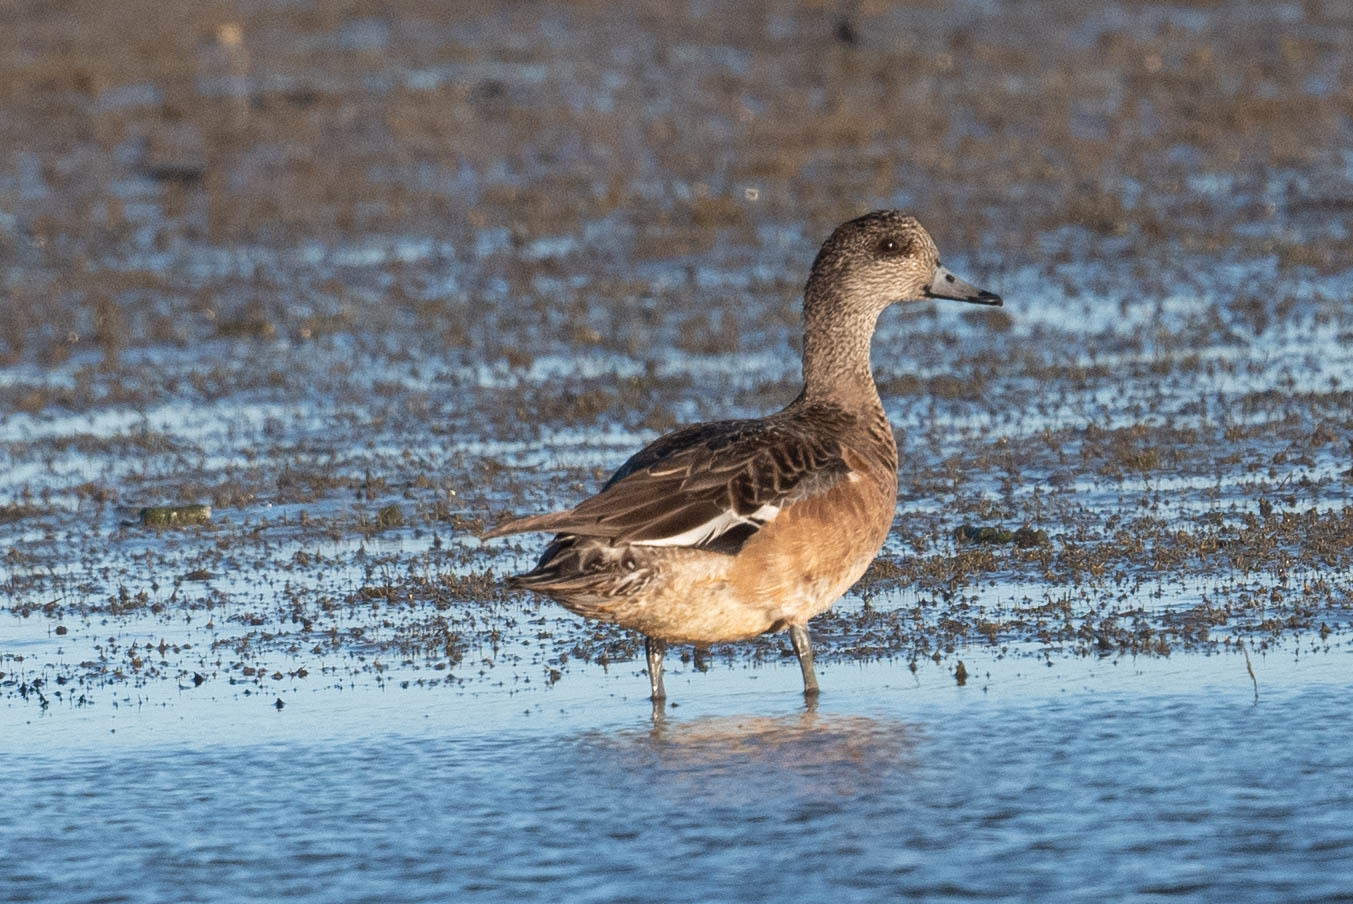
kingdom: Animalia
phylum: Chordata
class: Aves
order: Anseriformes
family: Anatidae
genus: Mareca
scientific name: Mareca americana
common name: American wigeon
